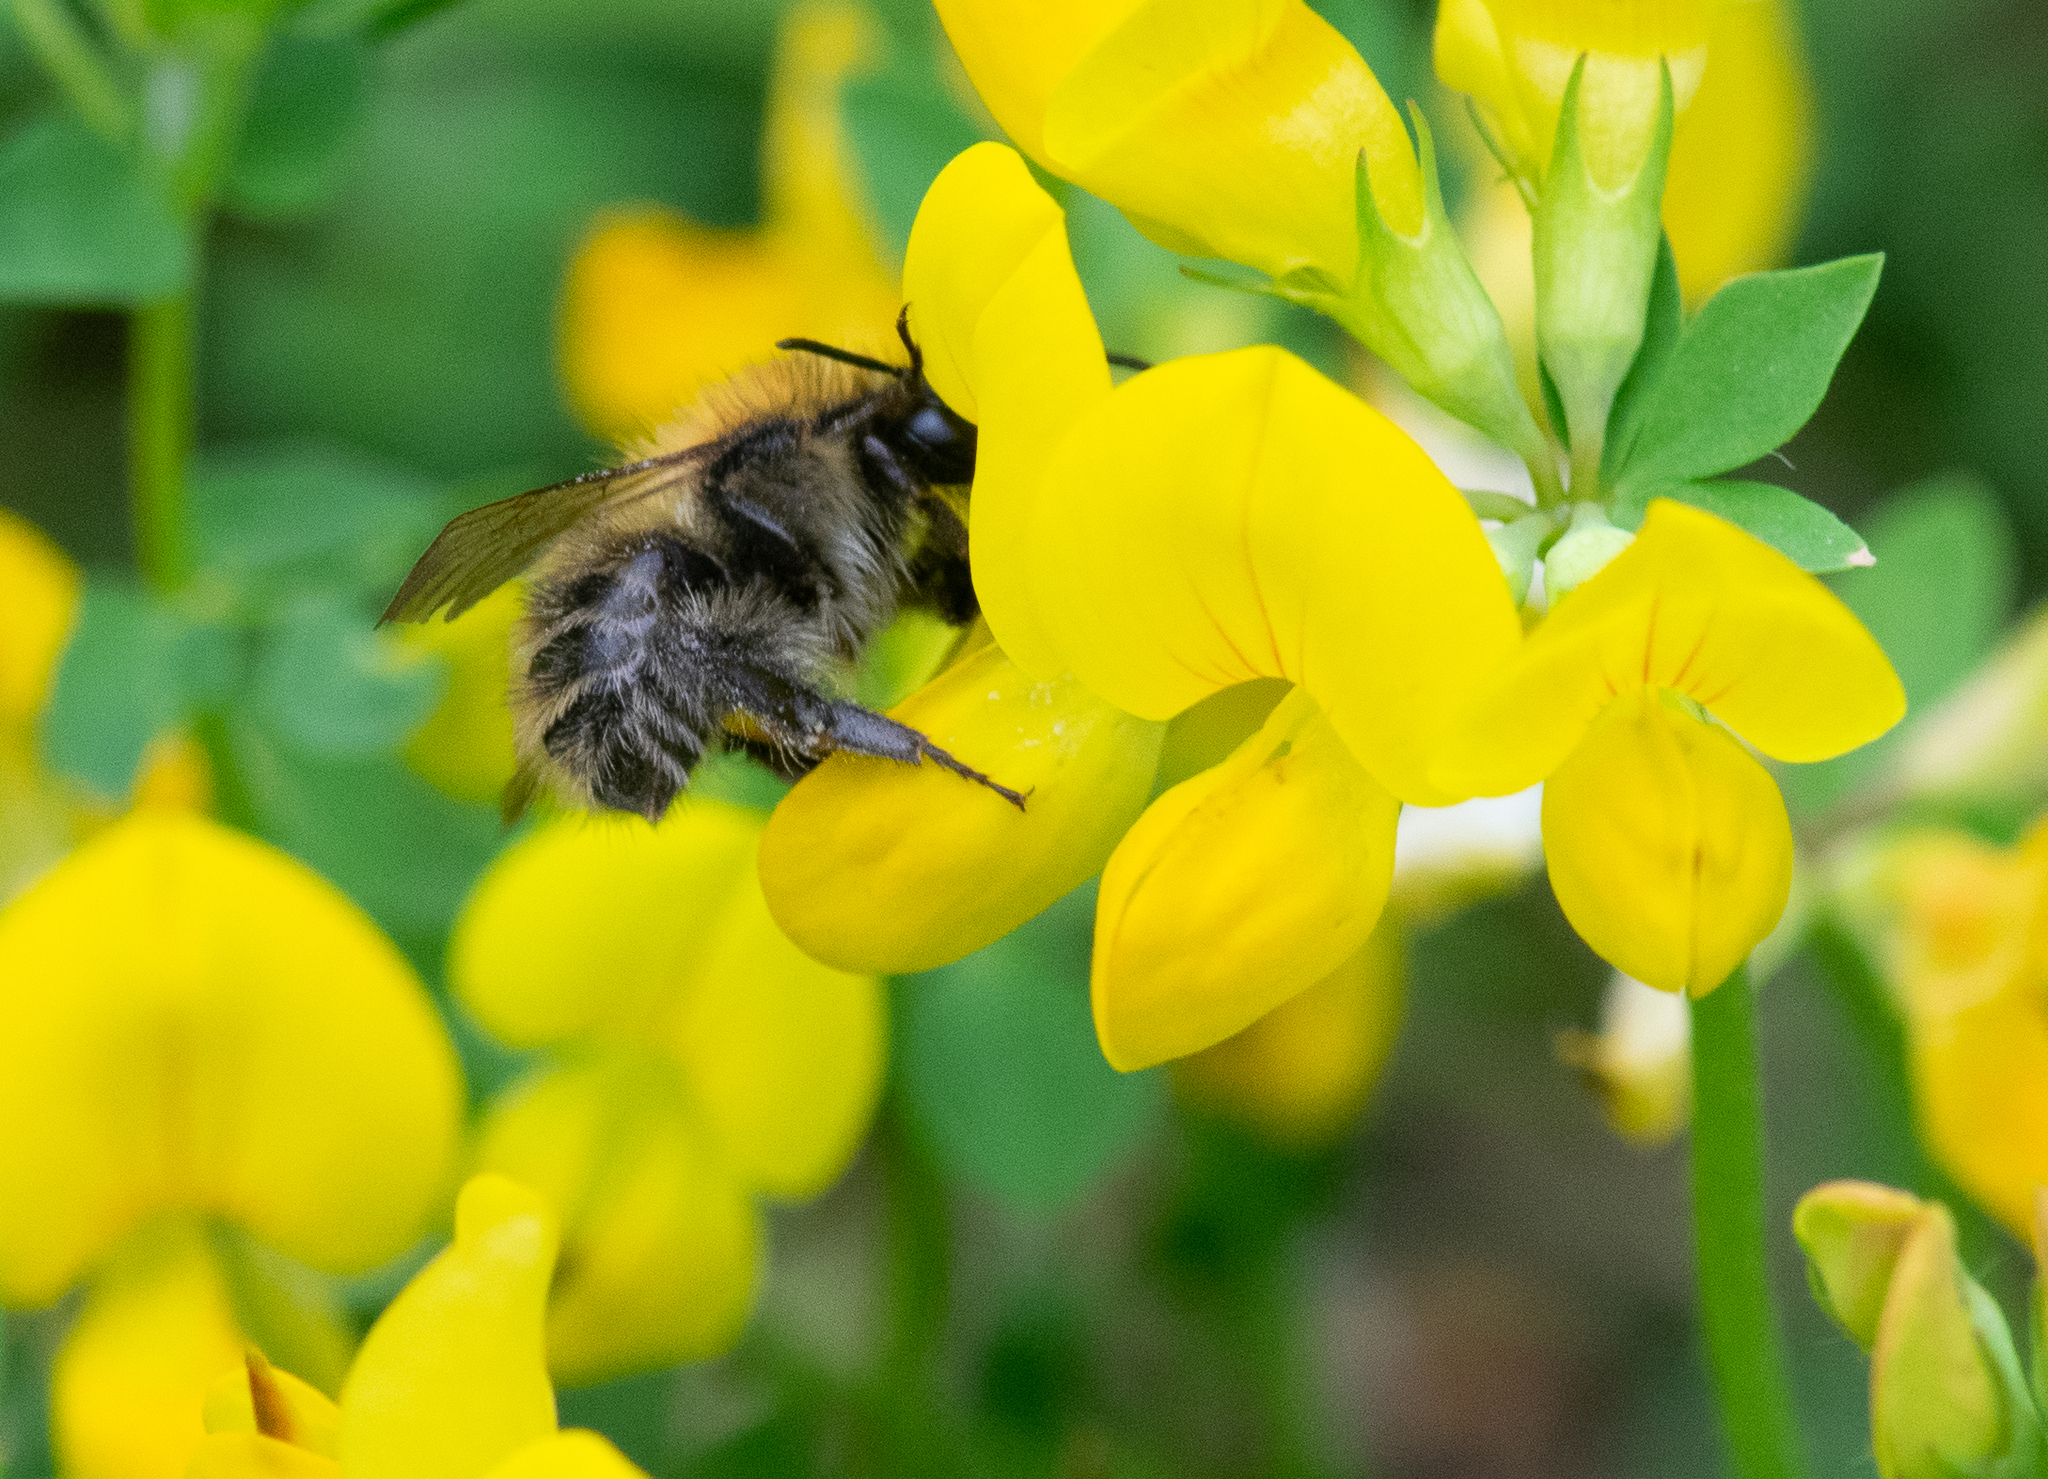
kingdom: Animalia
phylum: Arthropoda
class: Insecta
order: Hymenoptera
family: Apidae
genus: Bombus
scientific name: Bombus pascuorum
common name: Common carder bee
